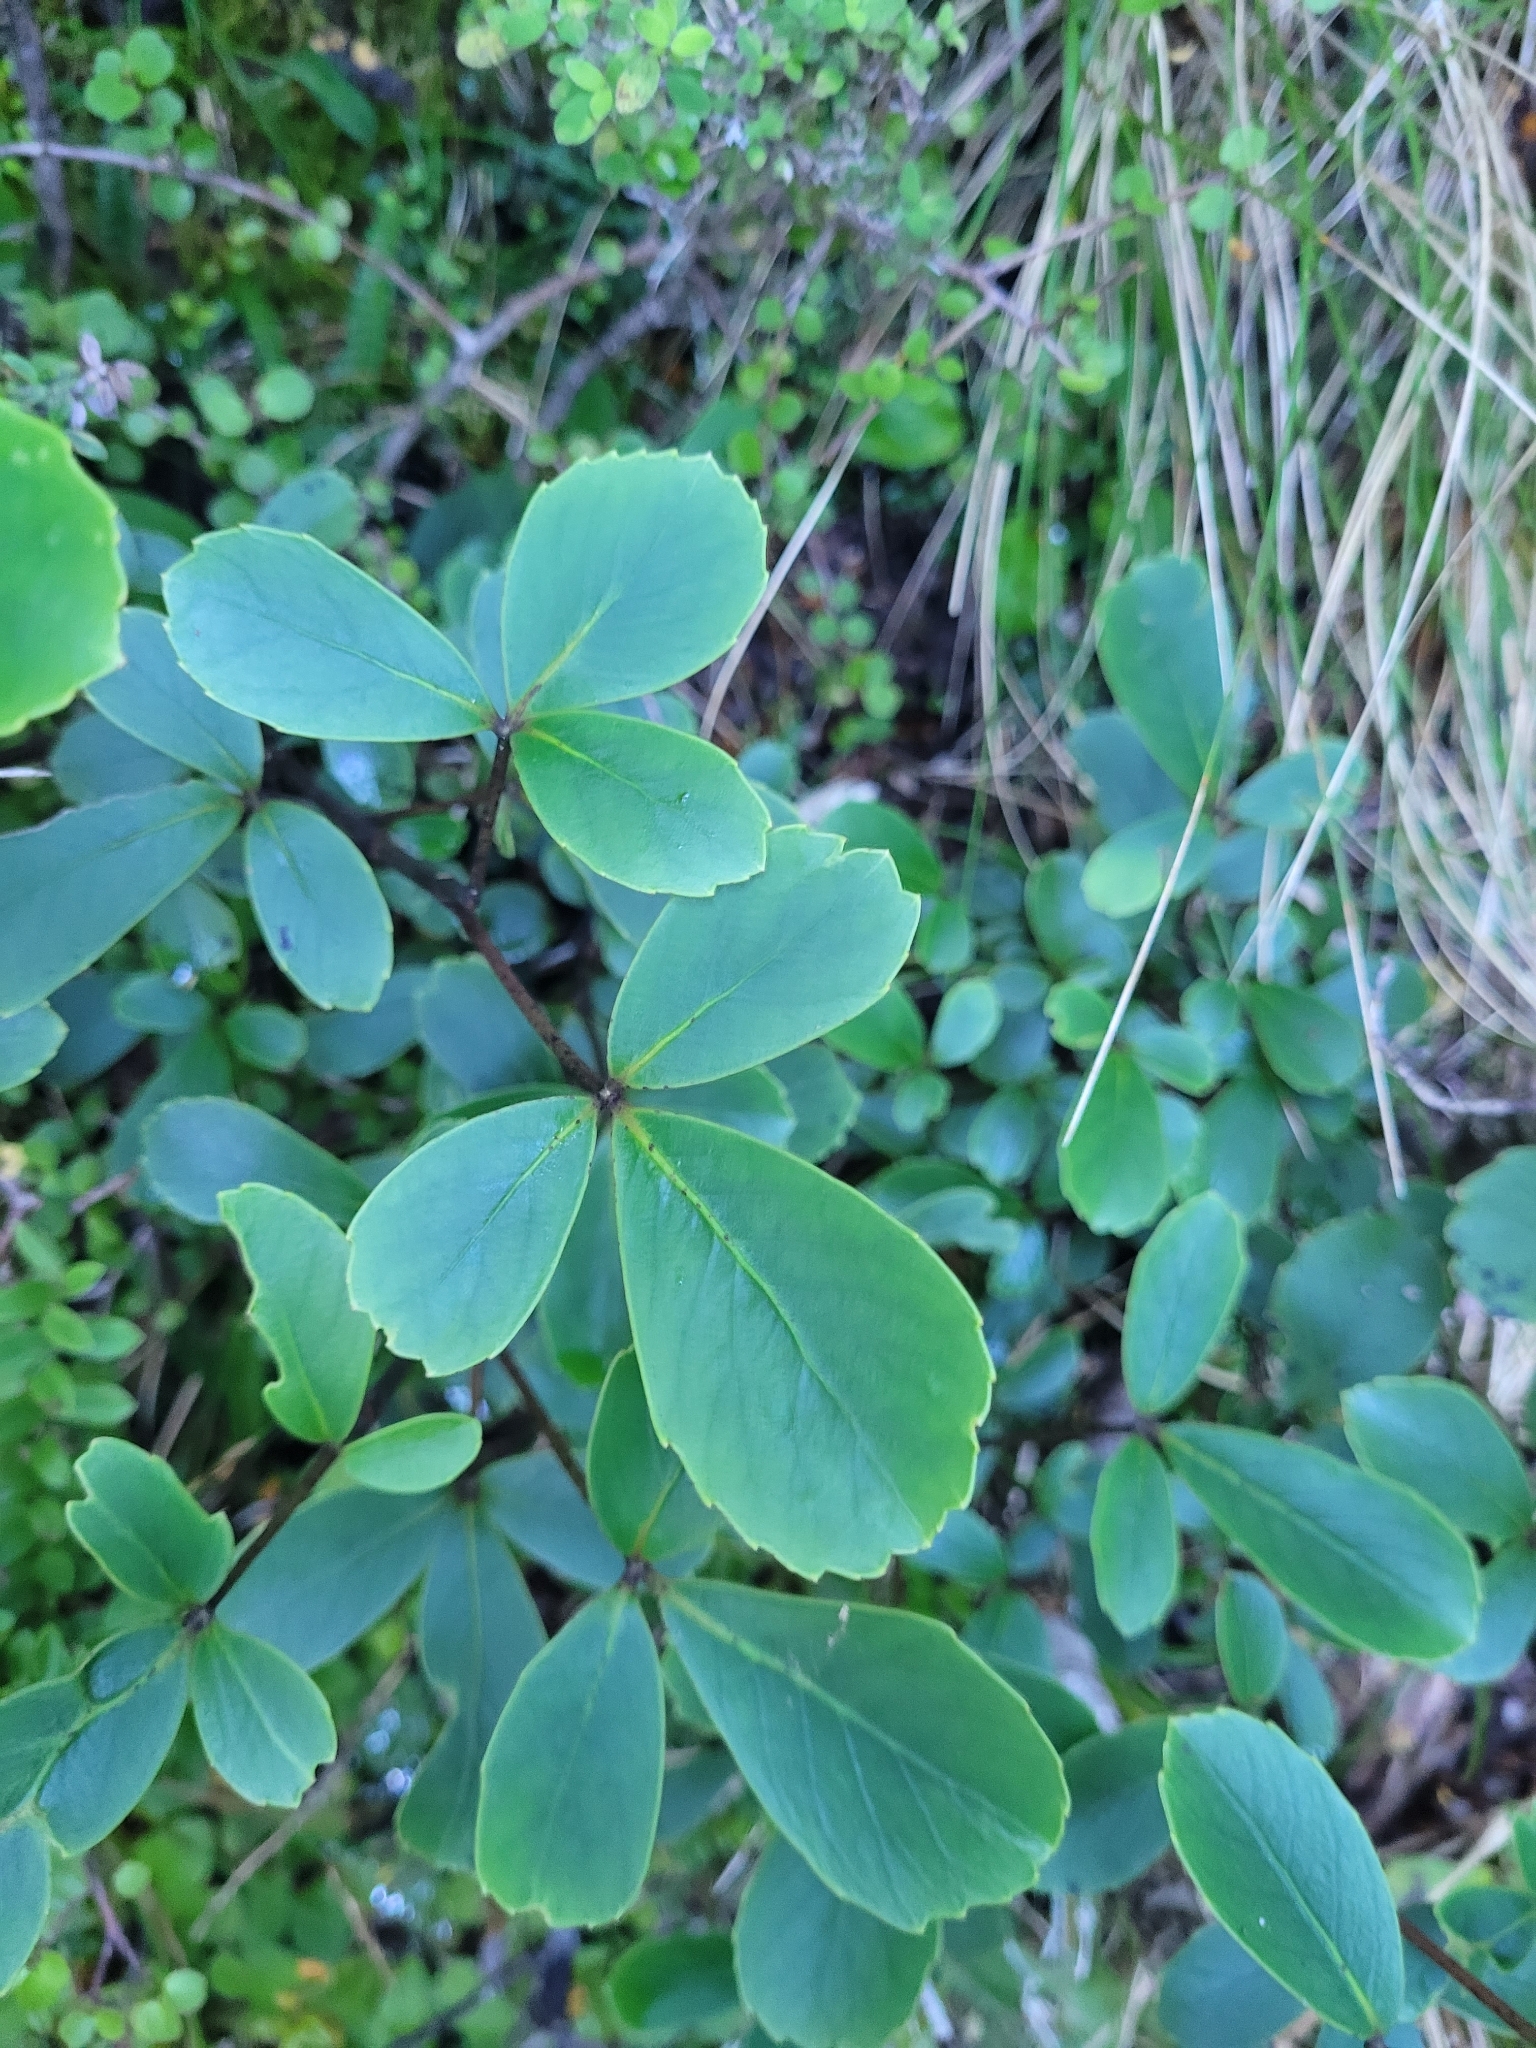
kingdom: Plantae
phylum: Tracheophyta
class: Magnoliopsida
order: Apiales
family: Araliaceae
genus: Neopanax
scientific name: Neopanax colensoi
